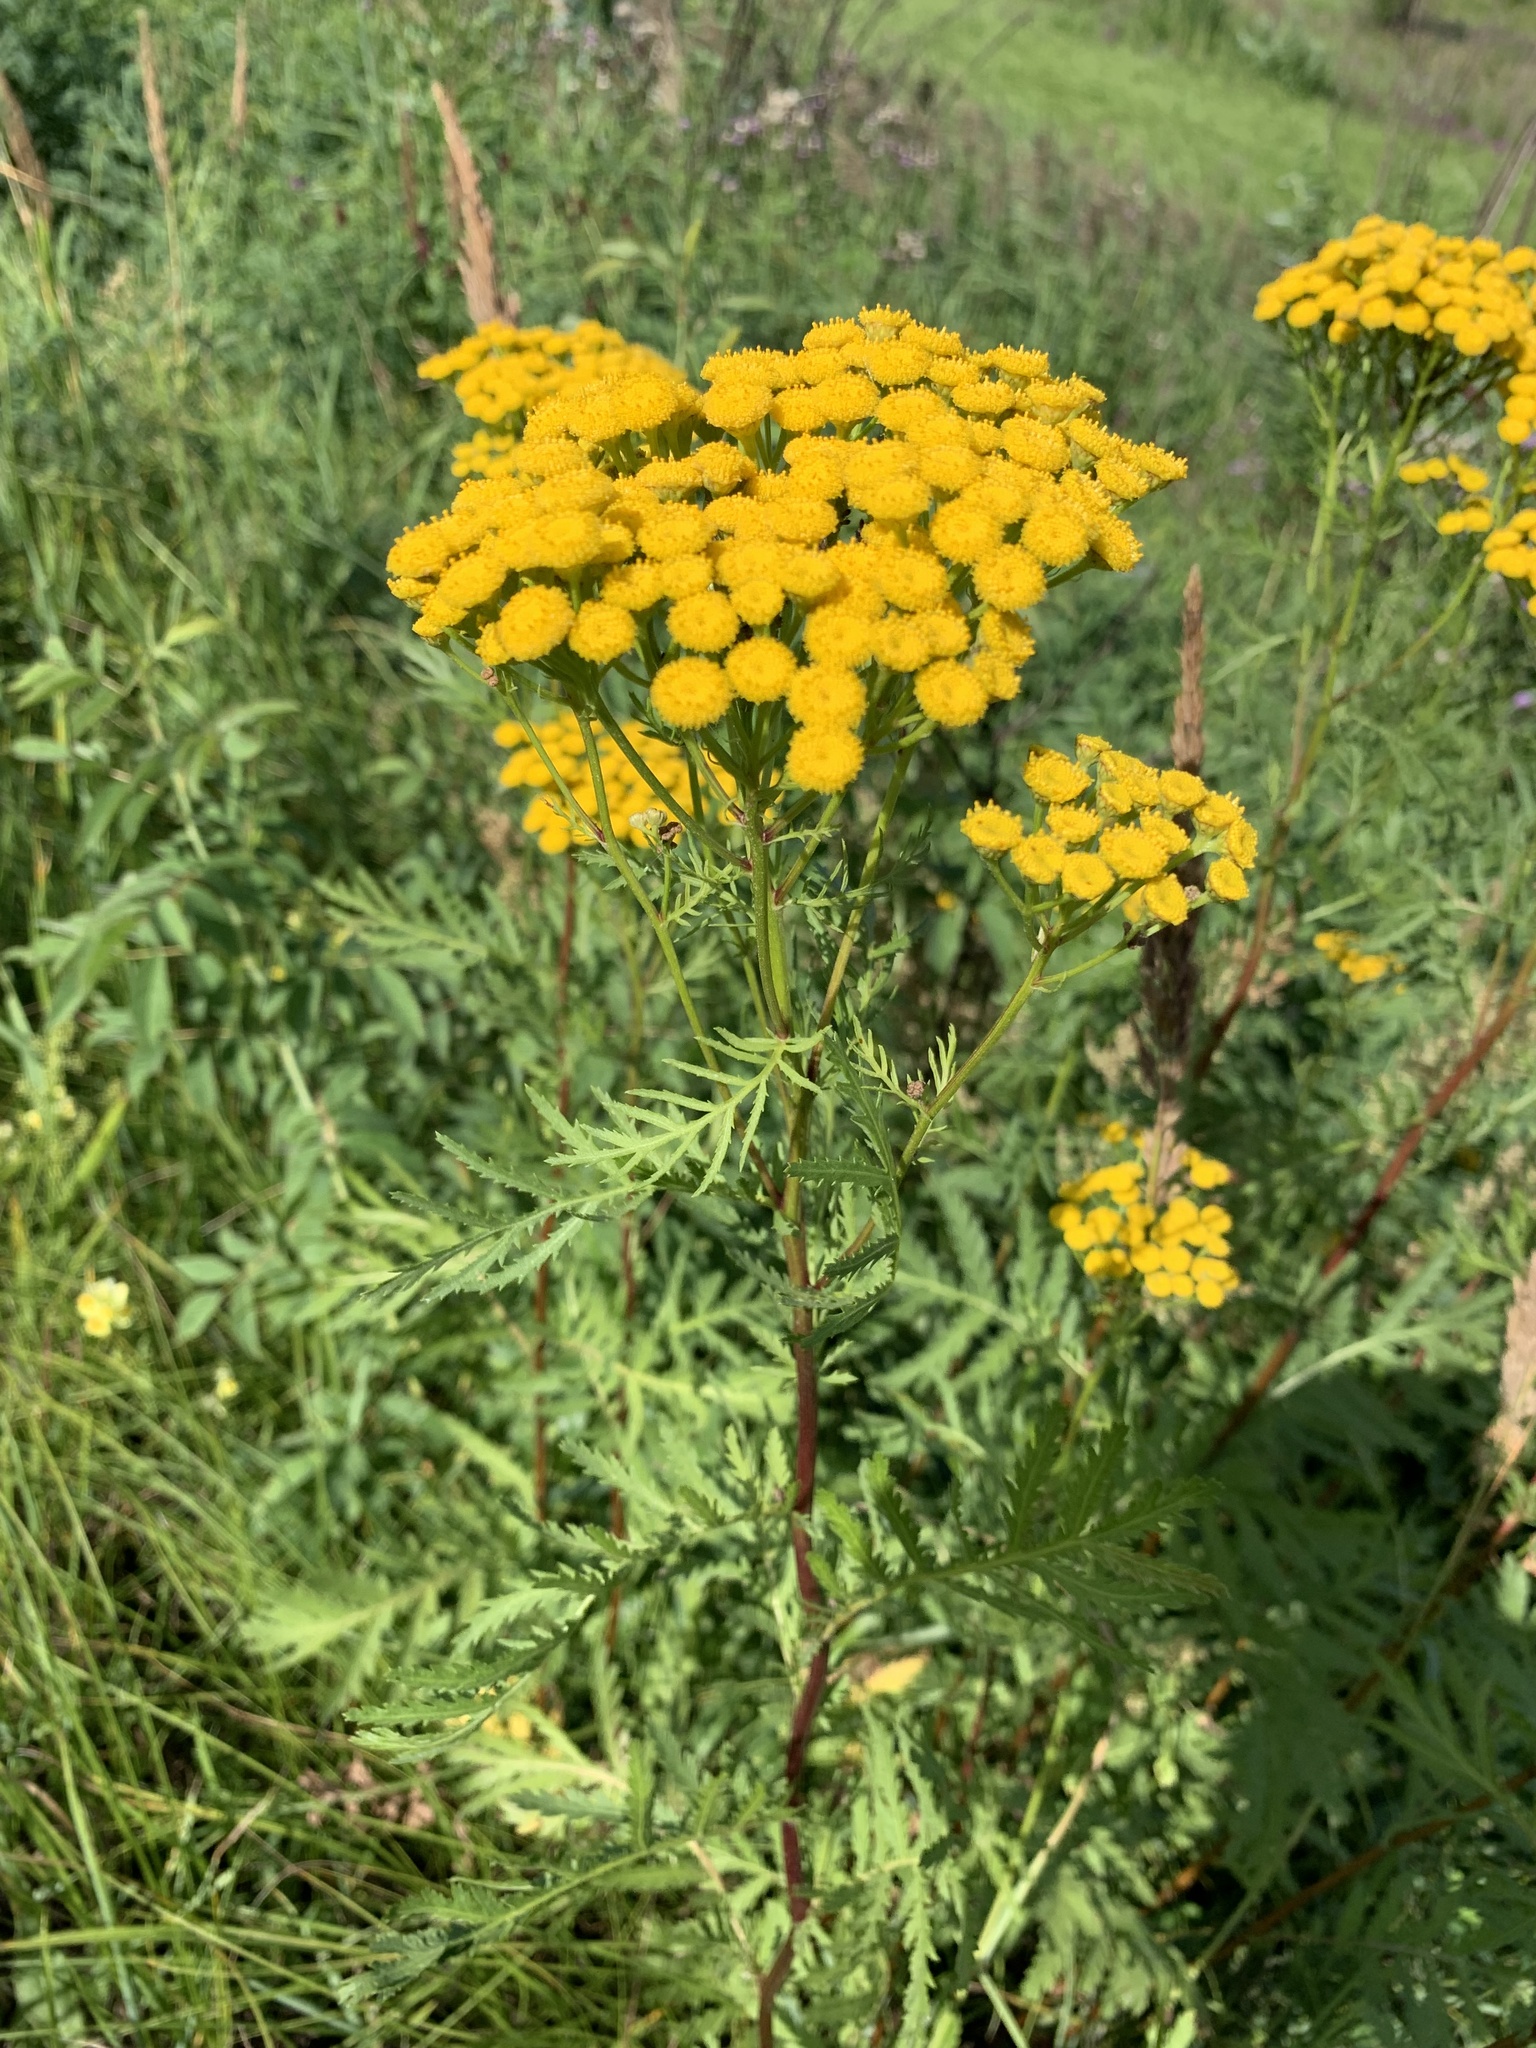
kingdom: Plantae
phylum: Tracheophyta
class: Magnoliopsida
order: Asterales
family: Asteraceae
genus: Tanacetum
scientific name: Tanacetum vulgare
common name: Common tansy
